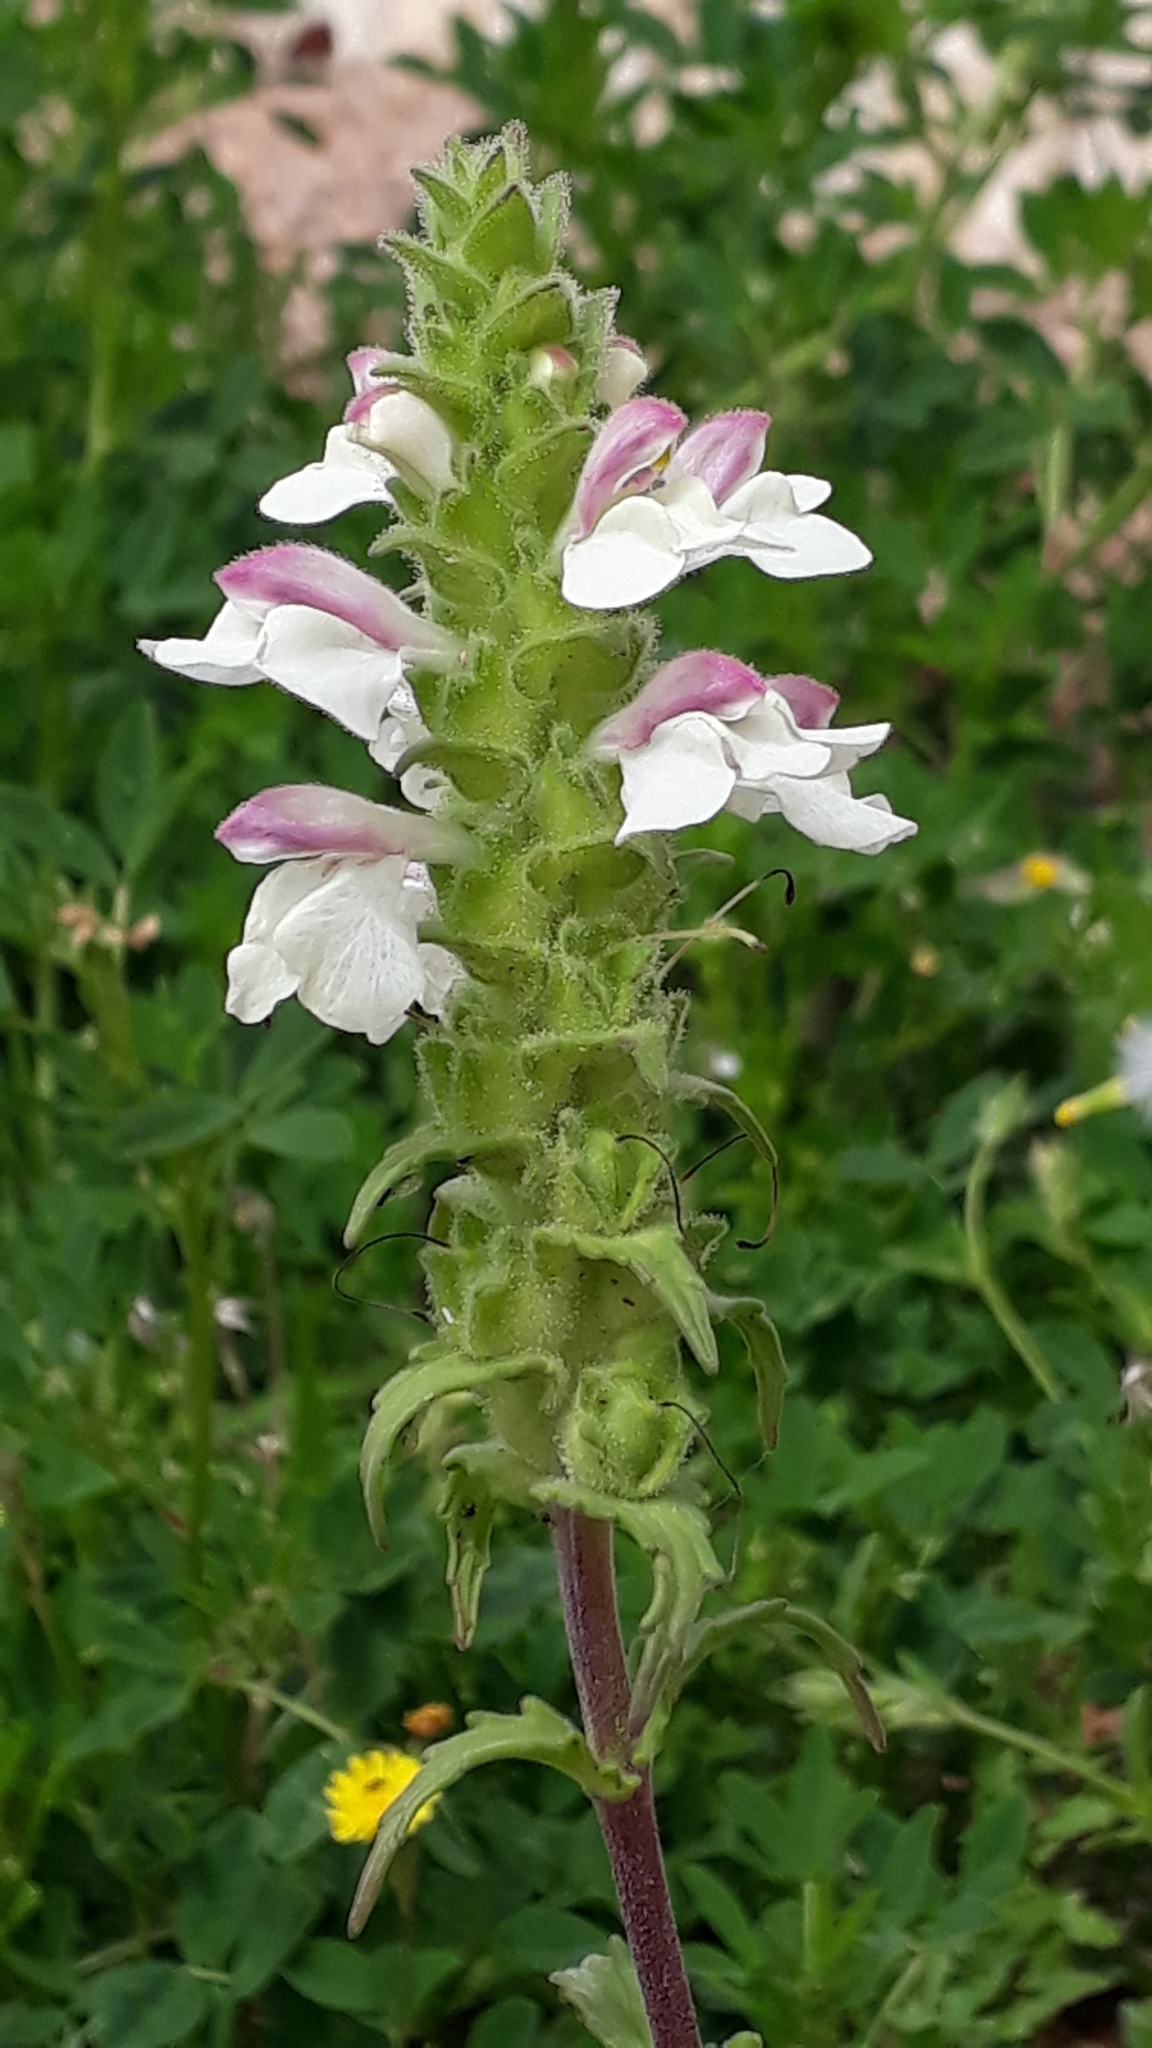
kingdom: Plantae
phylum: Tracheophyta
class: Magnoliopsida
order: Lamiales
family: Orobanchaceae
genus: Bellardia
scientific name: Bellardia trixago
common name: Mediterranean lineseed
